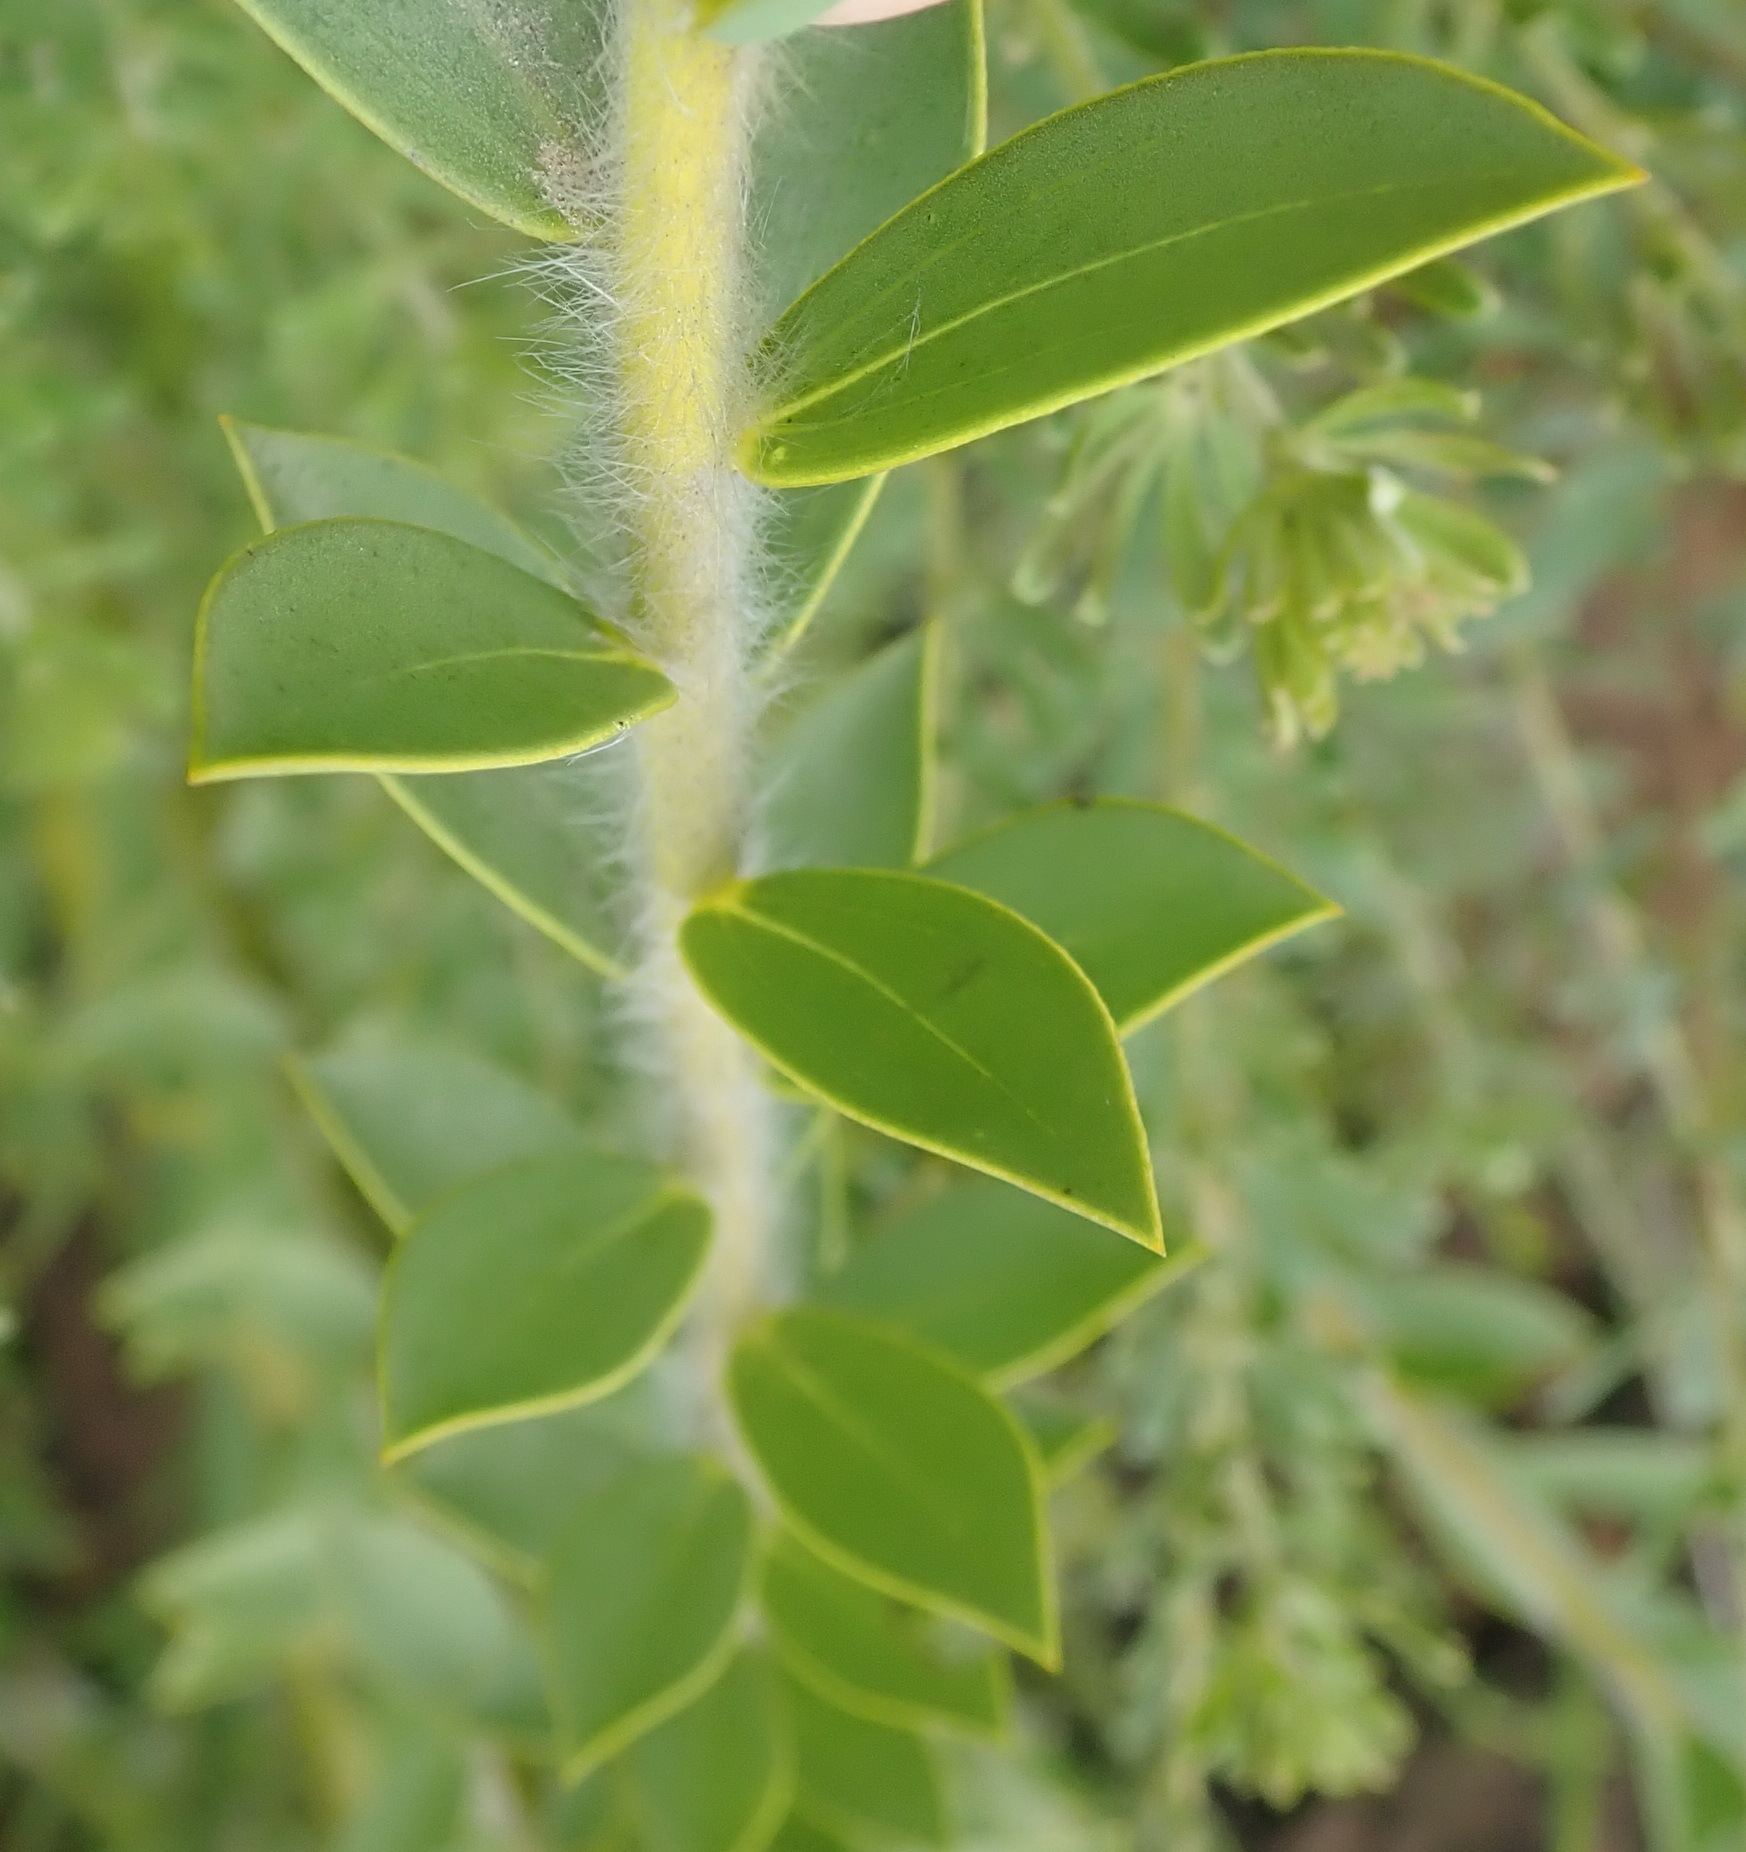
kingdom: Plantae
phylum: Tracheophyta
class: Magnoliopsida
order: Fabales
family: Fabaceae
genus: Liparia
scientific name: Liparia hirsuta
